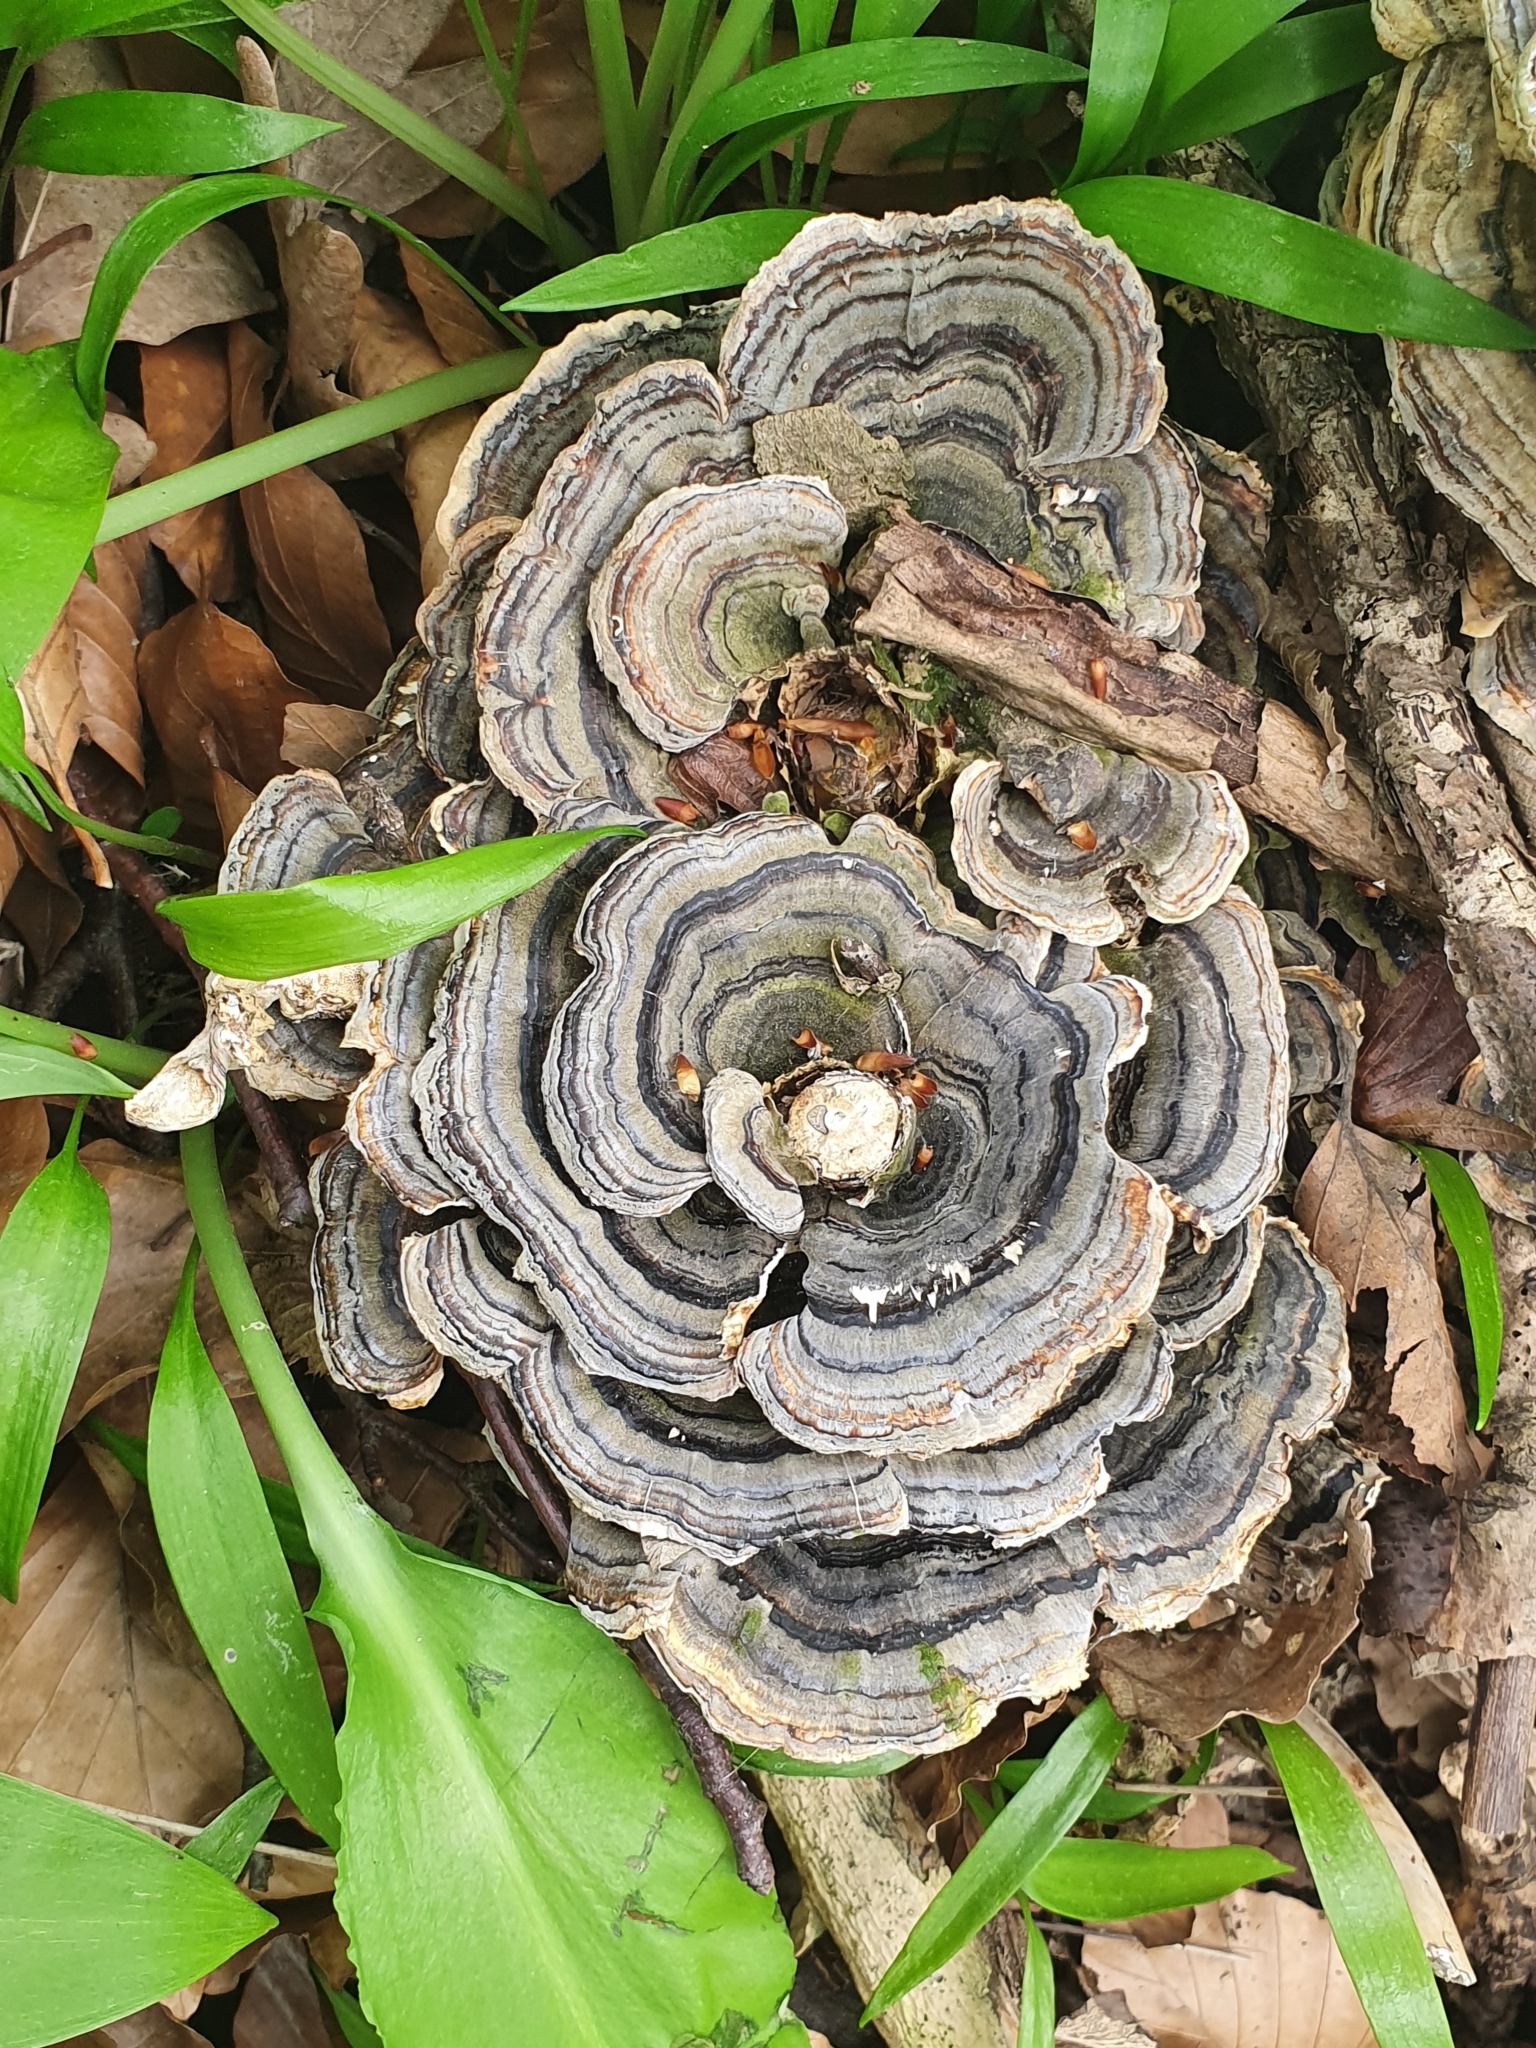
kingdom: Fungi
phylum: Basidiomycota
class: Agaricomycetes
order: Polyporales
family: Polyporaceae
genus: Trametes
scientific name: Trametes versicolor
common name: Turkeytail
